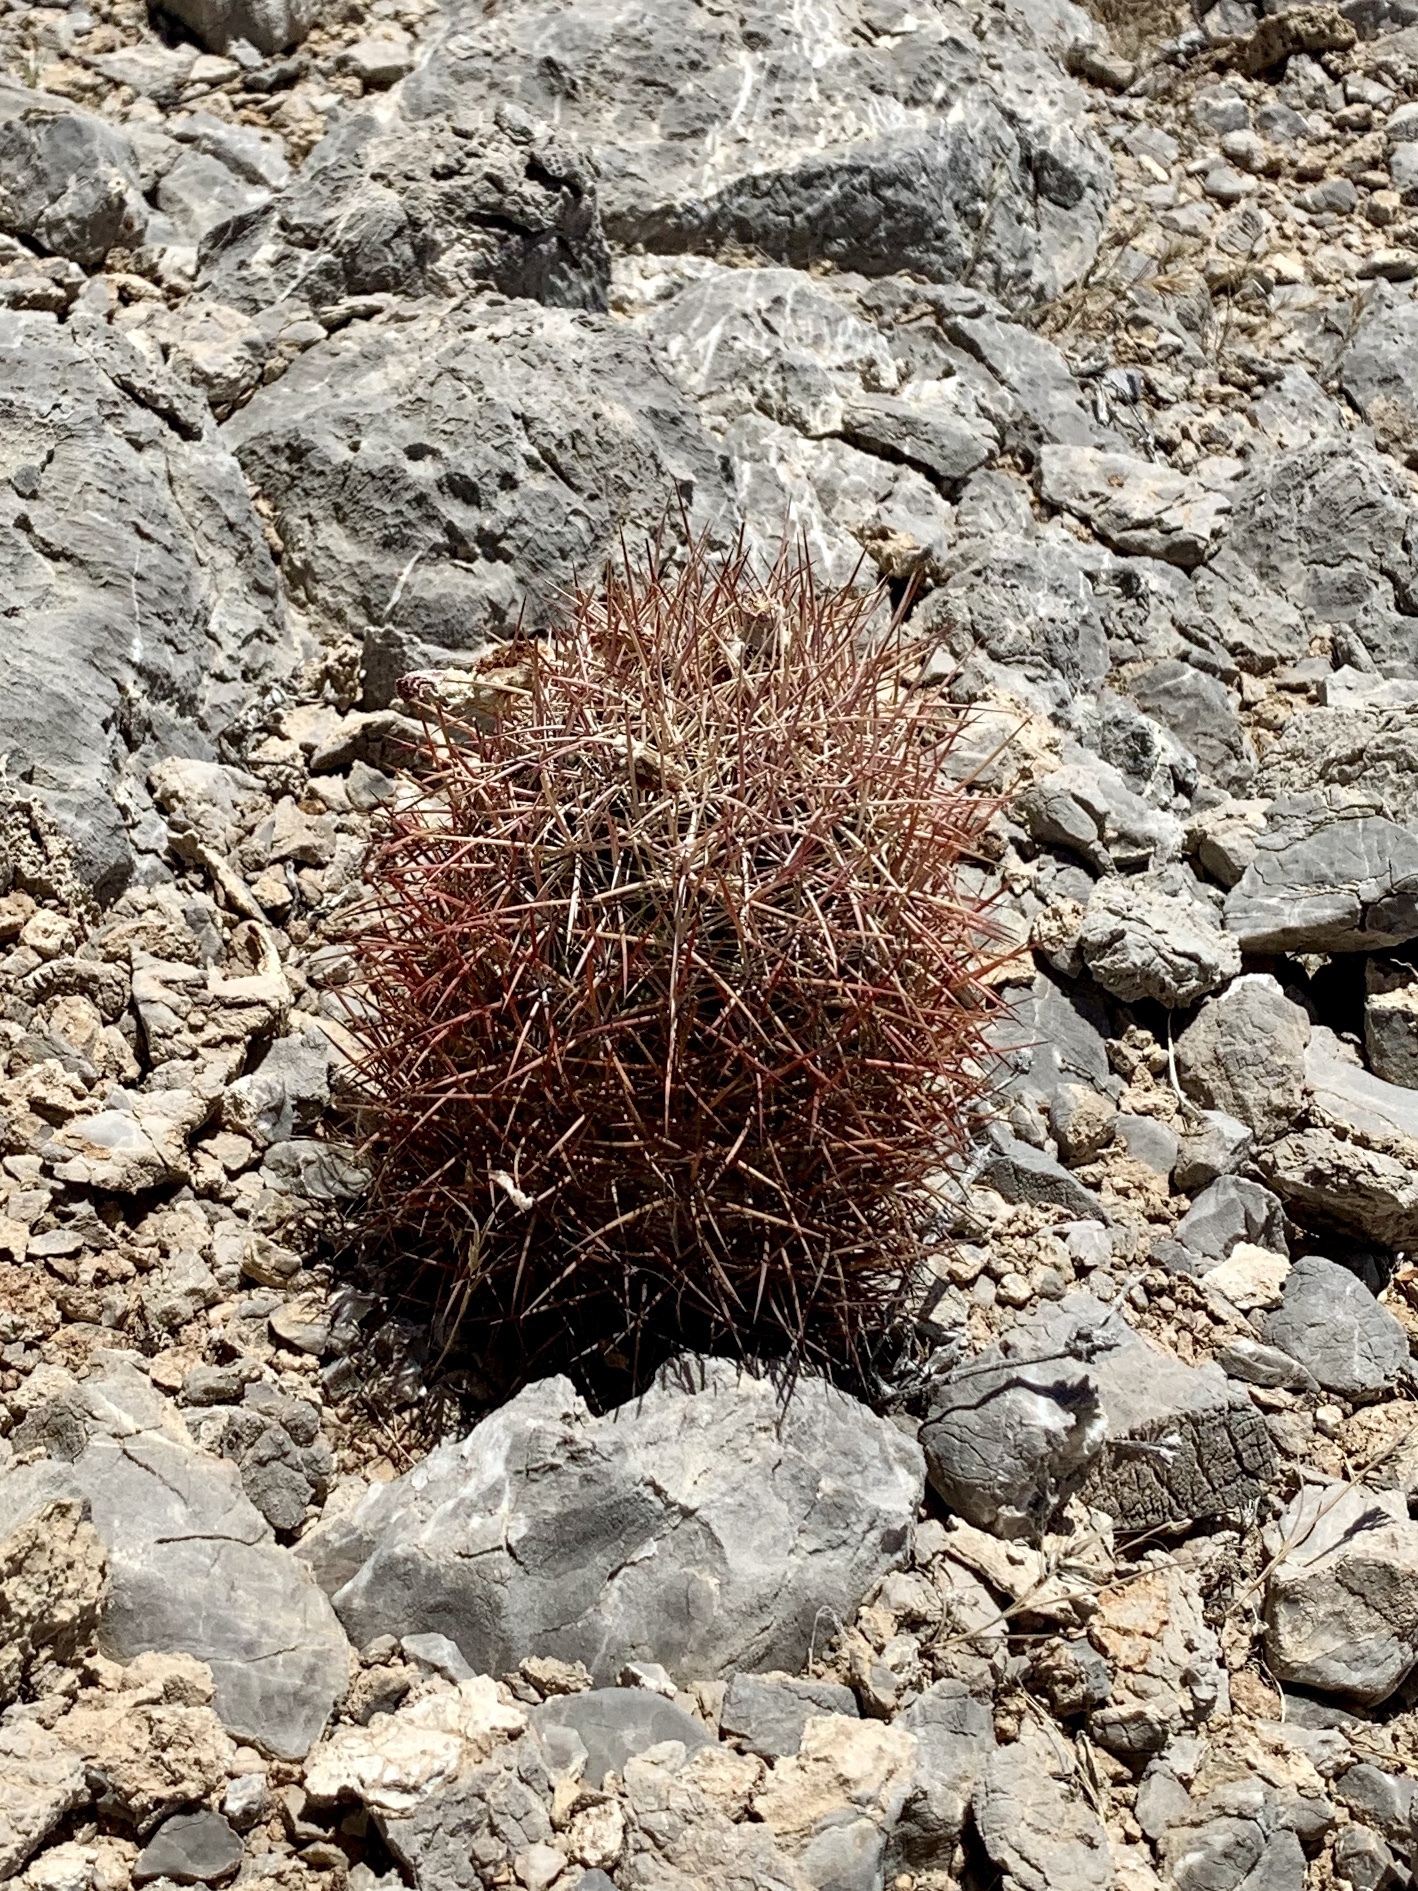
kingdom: Plantae
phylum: Tracheophyta
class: Magnoliopsida
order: Caryophyllales
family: Cactaceae
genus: Sclerocactus
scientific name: Sclerocactus johnsonii
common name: Eight-spine fishhook cactus
